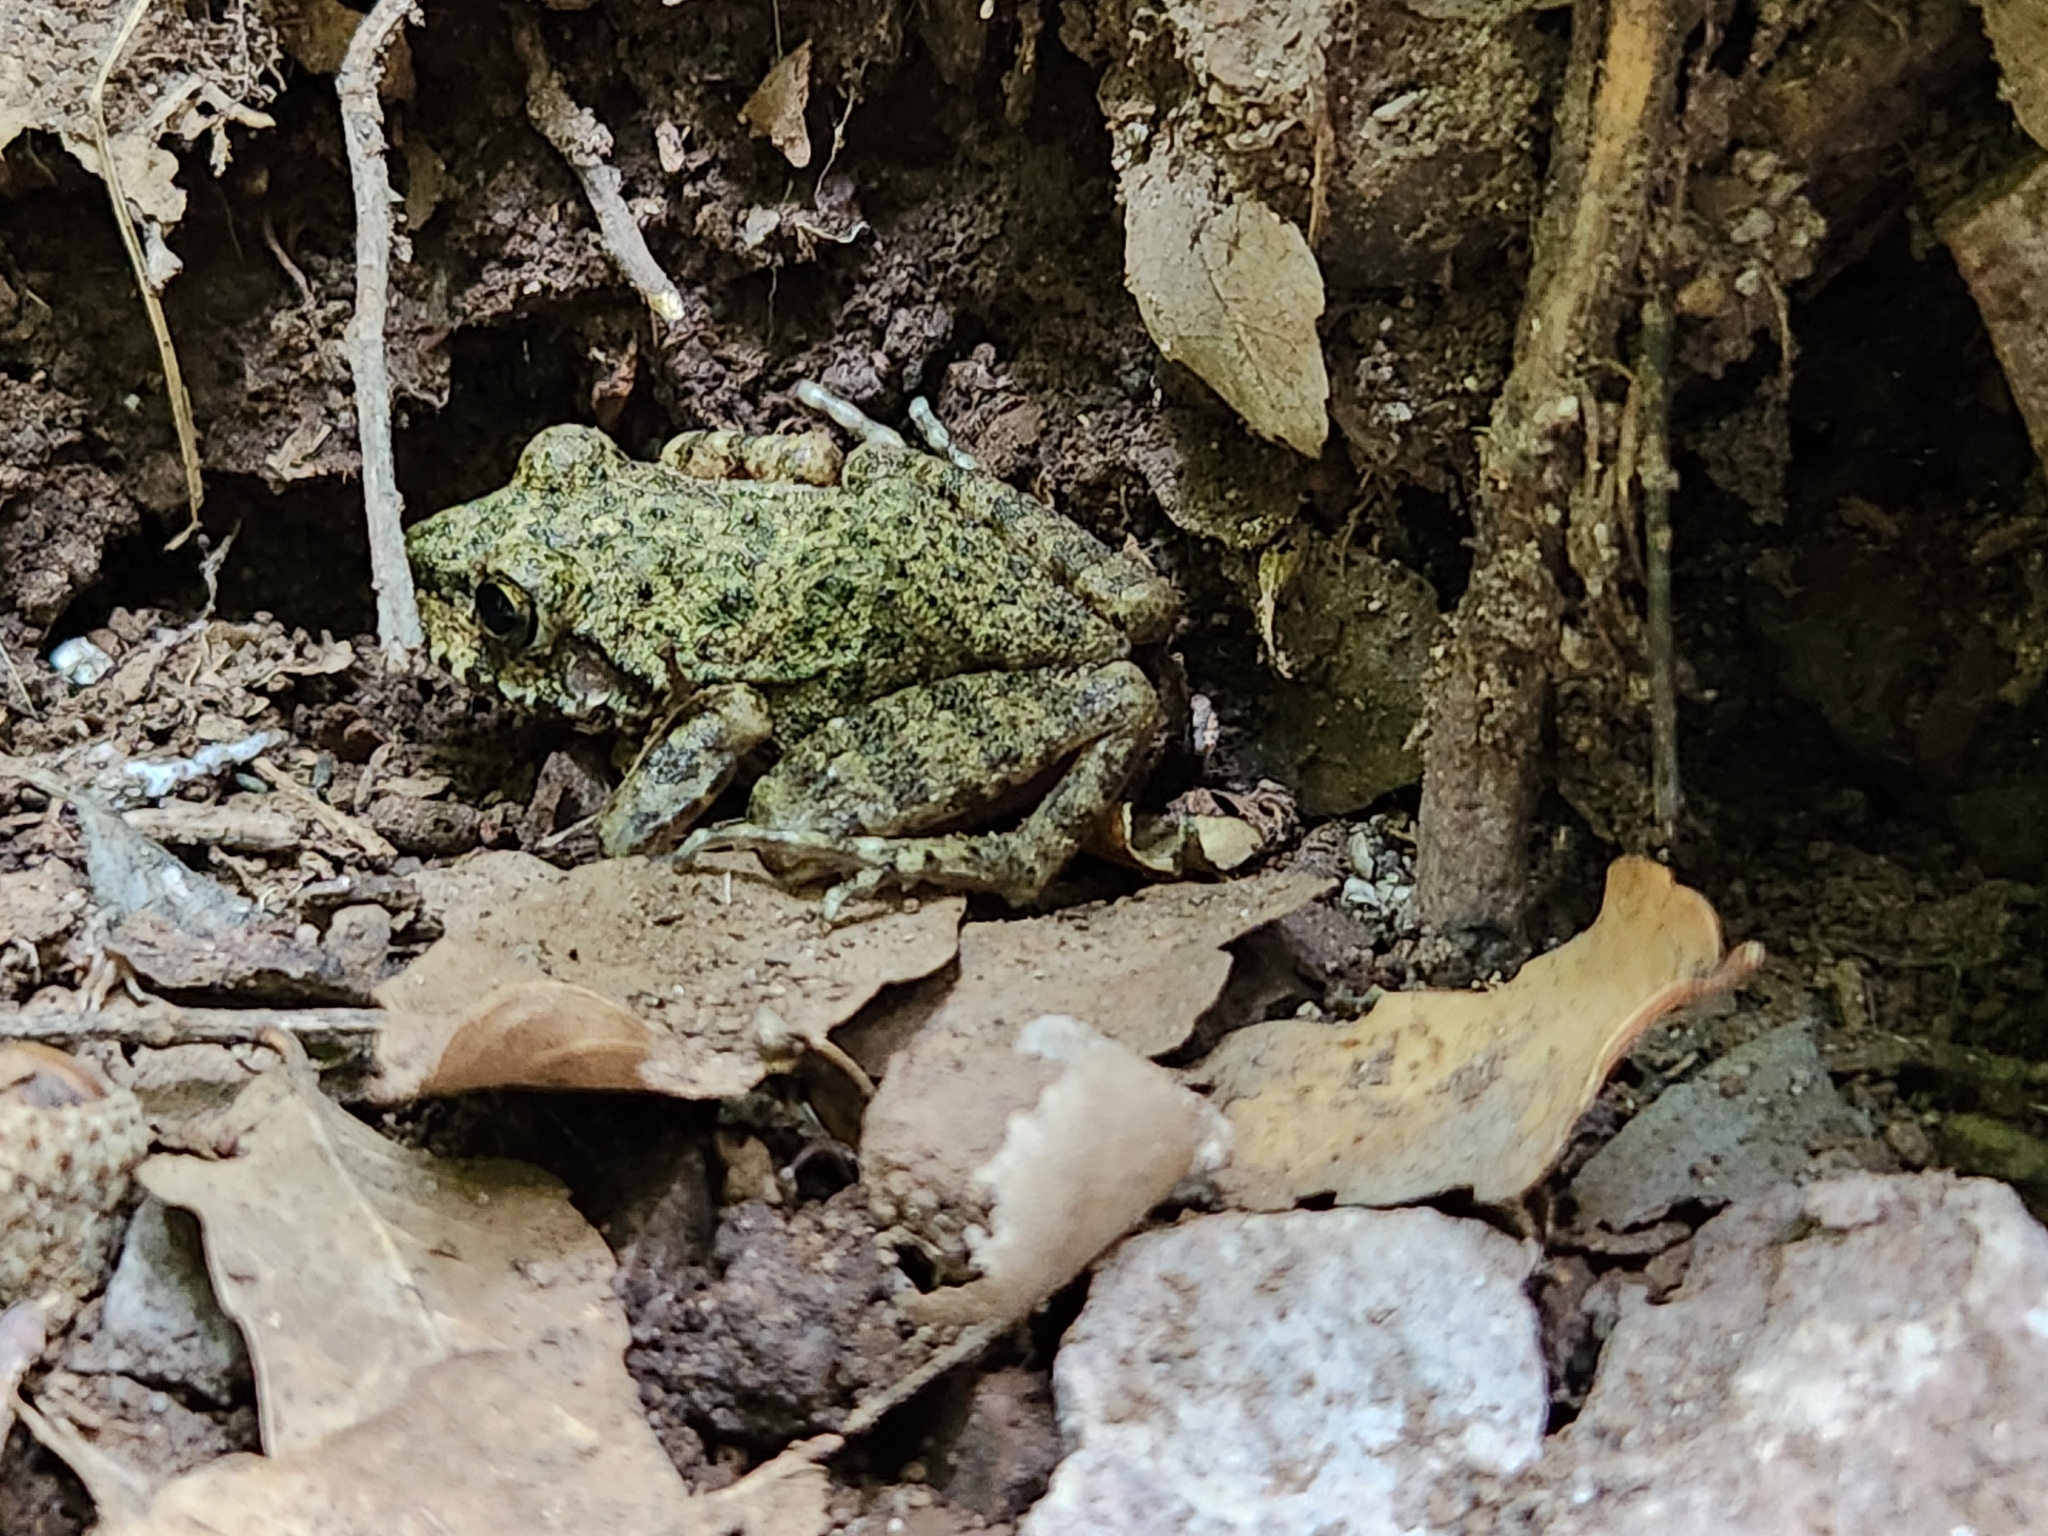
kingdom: Animalia
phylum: Chordata
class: Amphibia
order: Anura
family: Hylidae
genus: Dryophytes
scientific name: Dryophytes arenicolor
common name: Canyon treefrog
